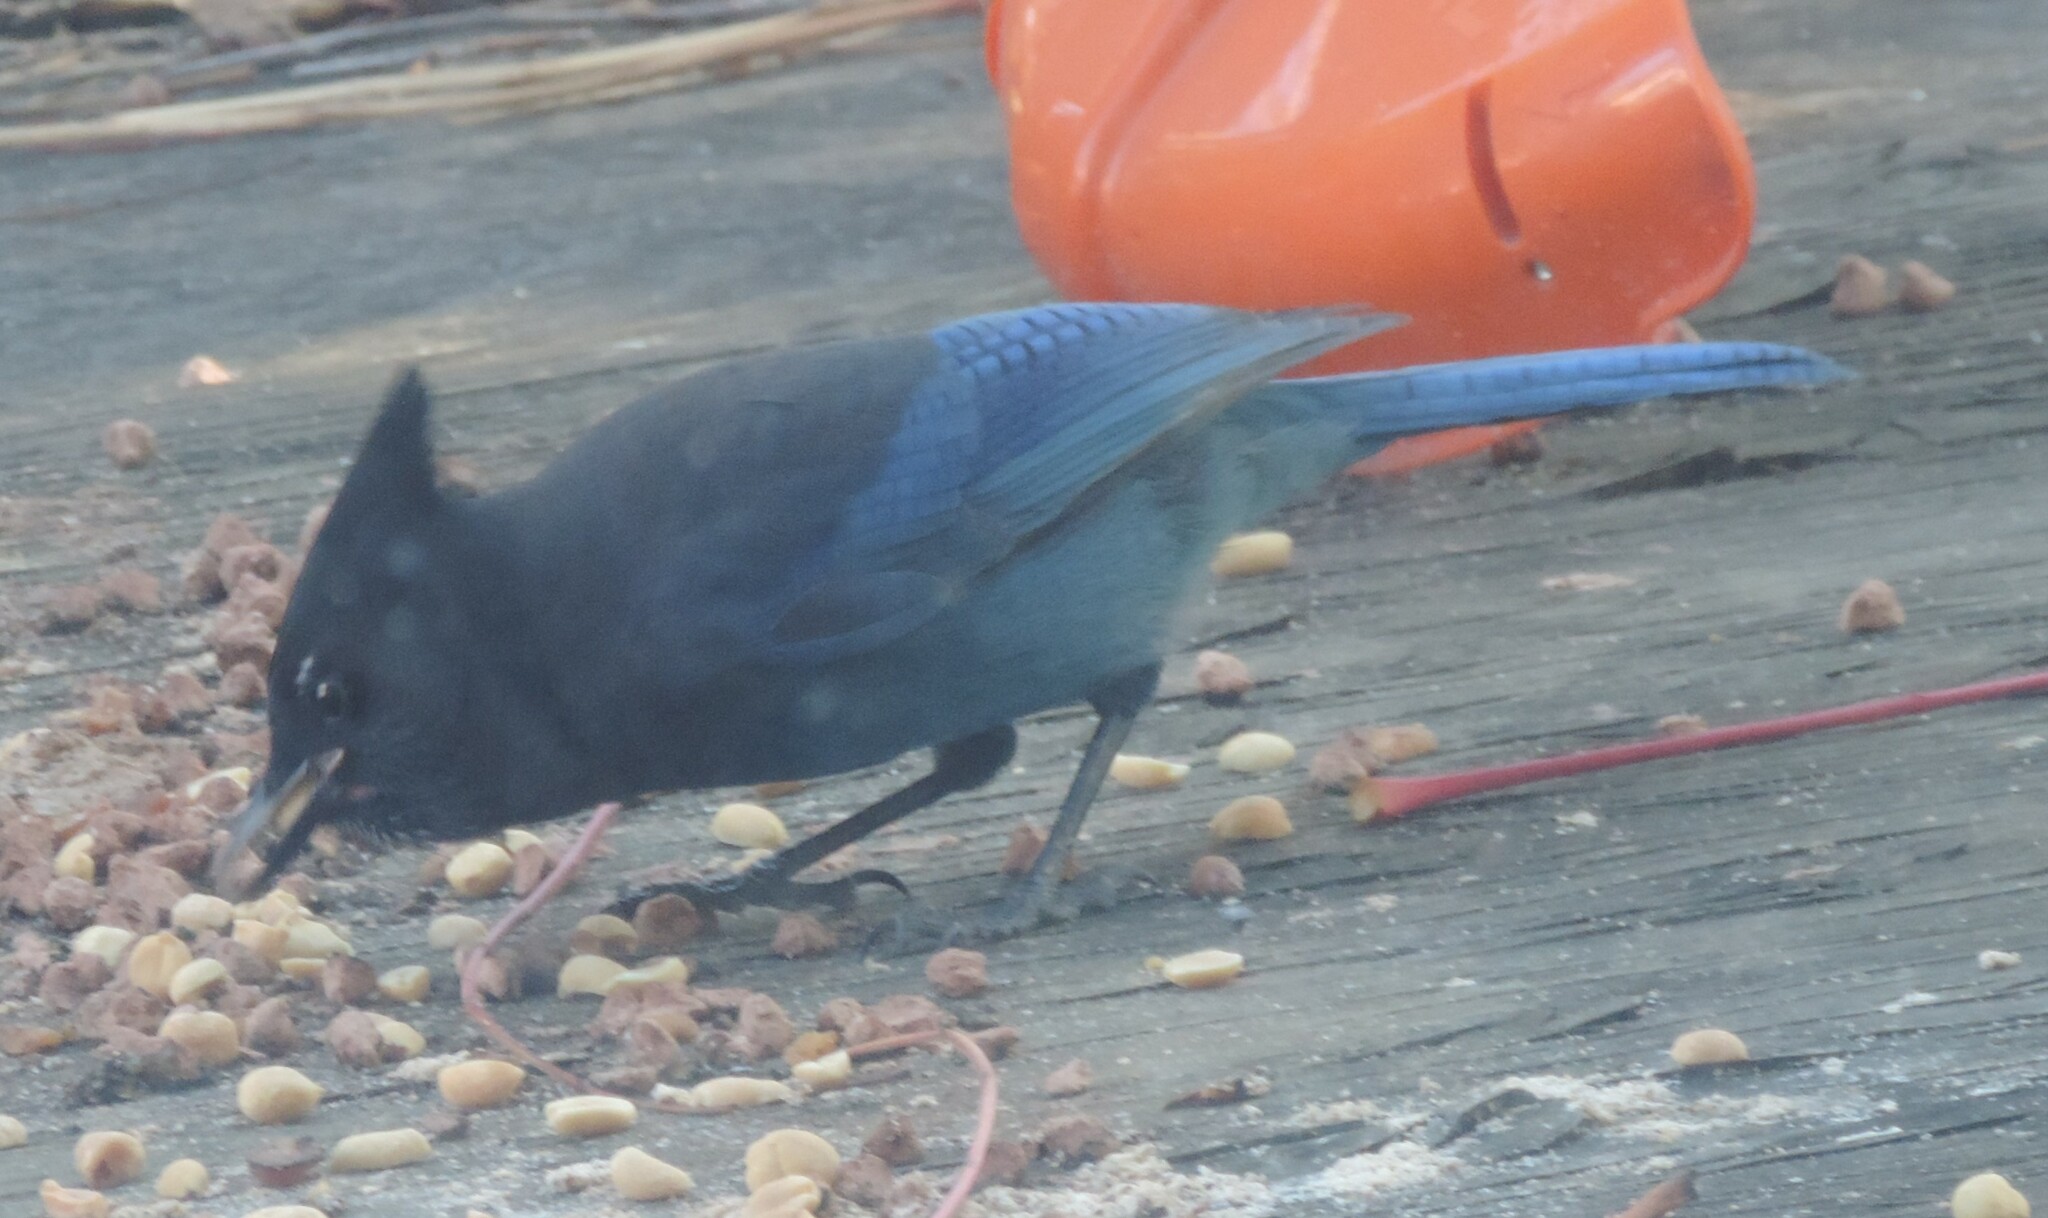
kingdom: Animalia
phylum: Chordata
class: Aves
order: Passeriformes
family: Corvidae
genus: Cyanocitta
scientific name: Cyanocitta stelleri
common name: Steller's jay
